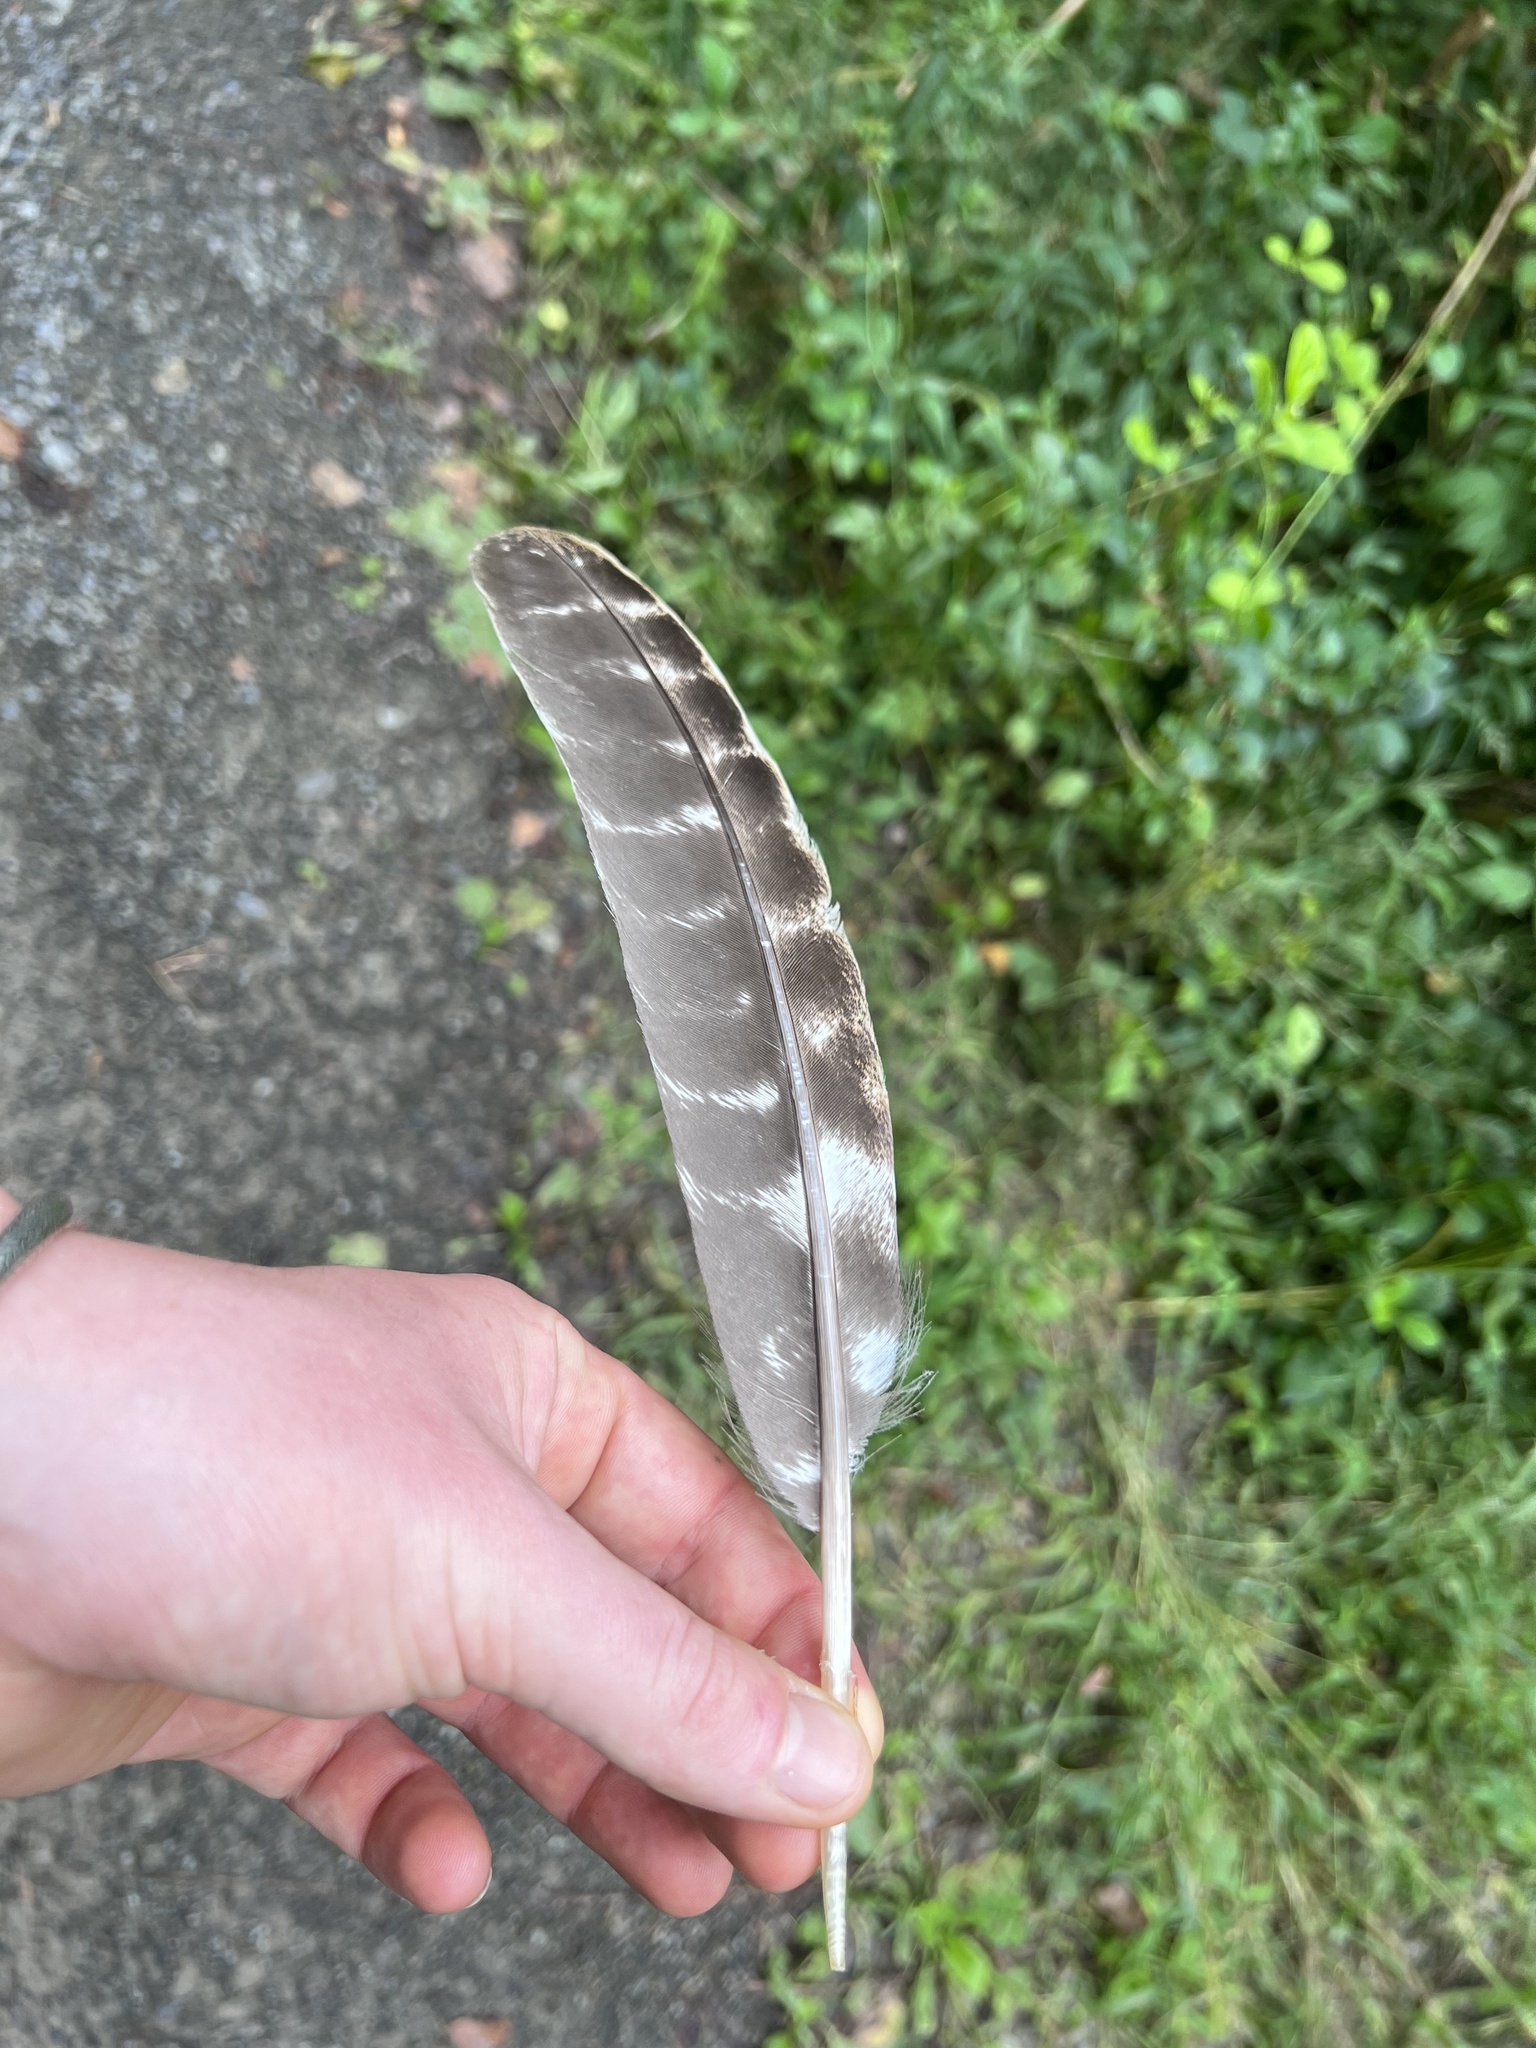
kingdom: Animalia
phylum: Chordata
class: Aves
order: Galliformes
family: Phasianidae
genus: Meleagris
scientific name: Meleagris gallopavo
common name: Wild turkey
